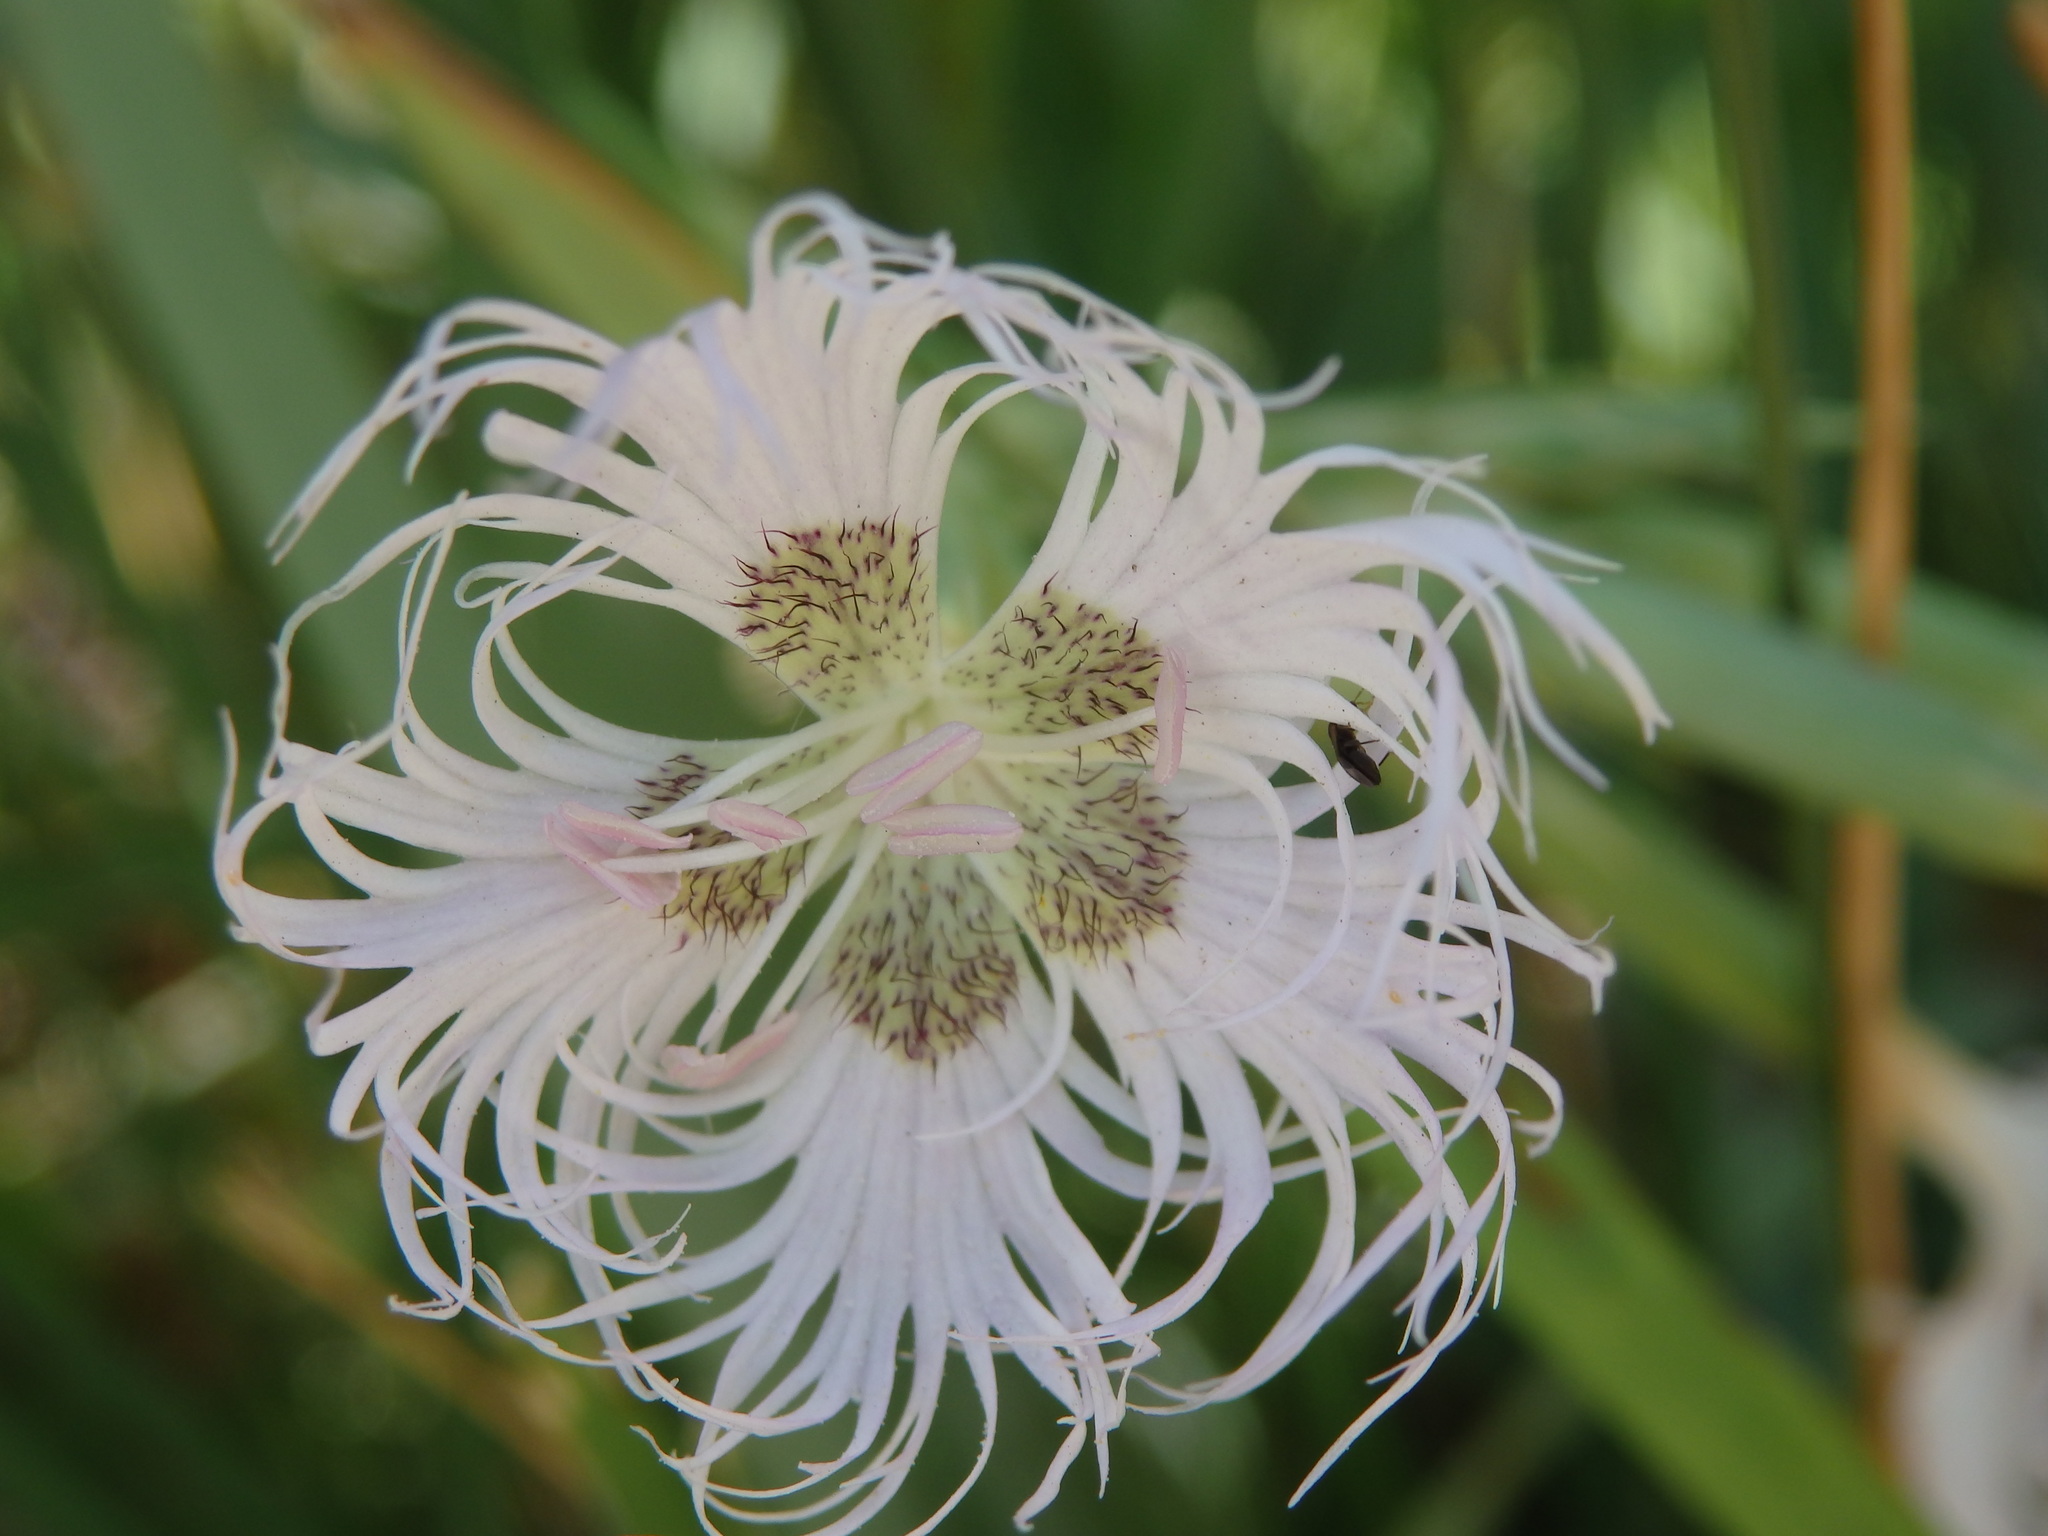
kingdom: Plantae
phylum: Tracheophyta
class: Magnoliopsida
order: Caryophyllales
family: Caryophyllaceae
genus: Dianthus
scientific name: Dianthus hyssopifolius
